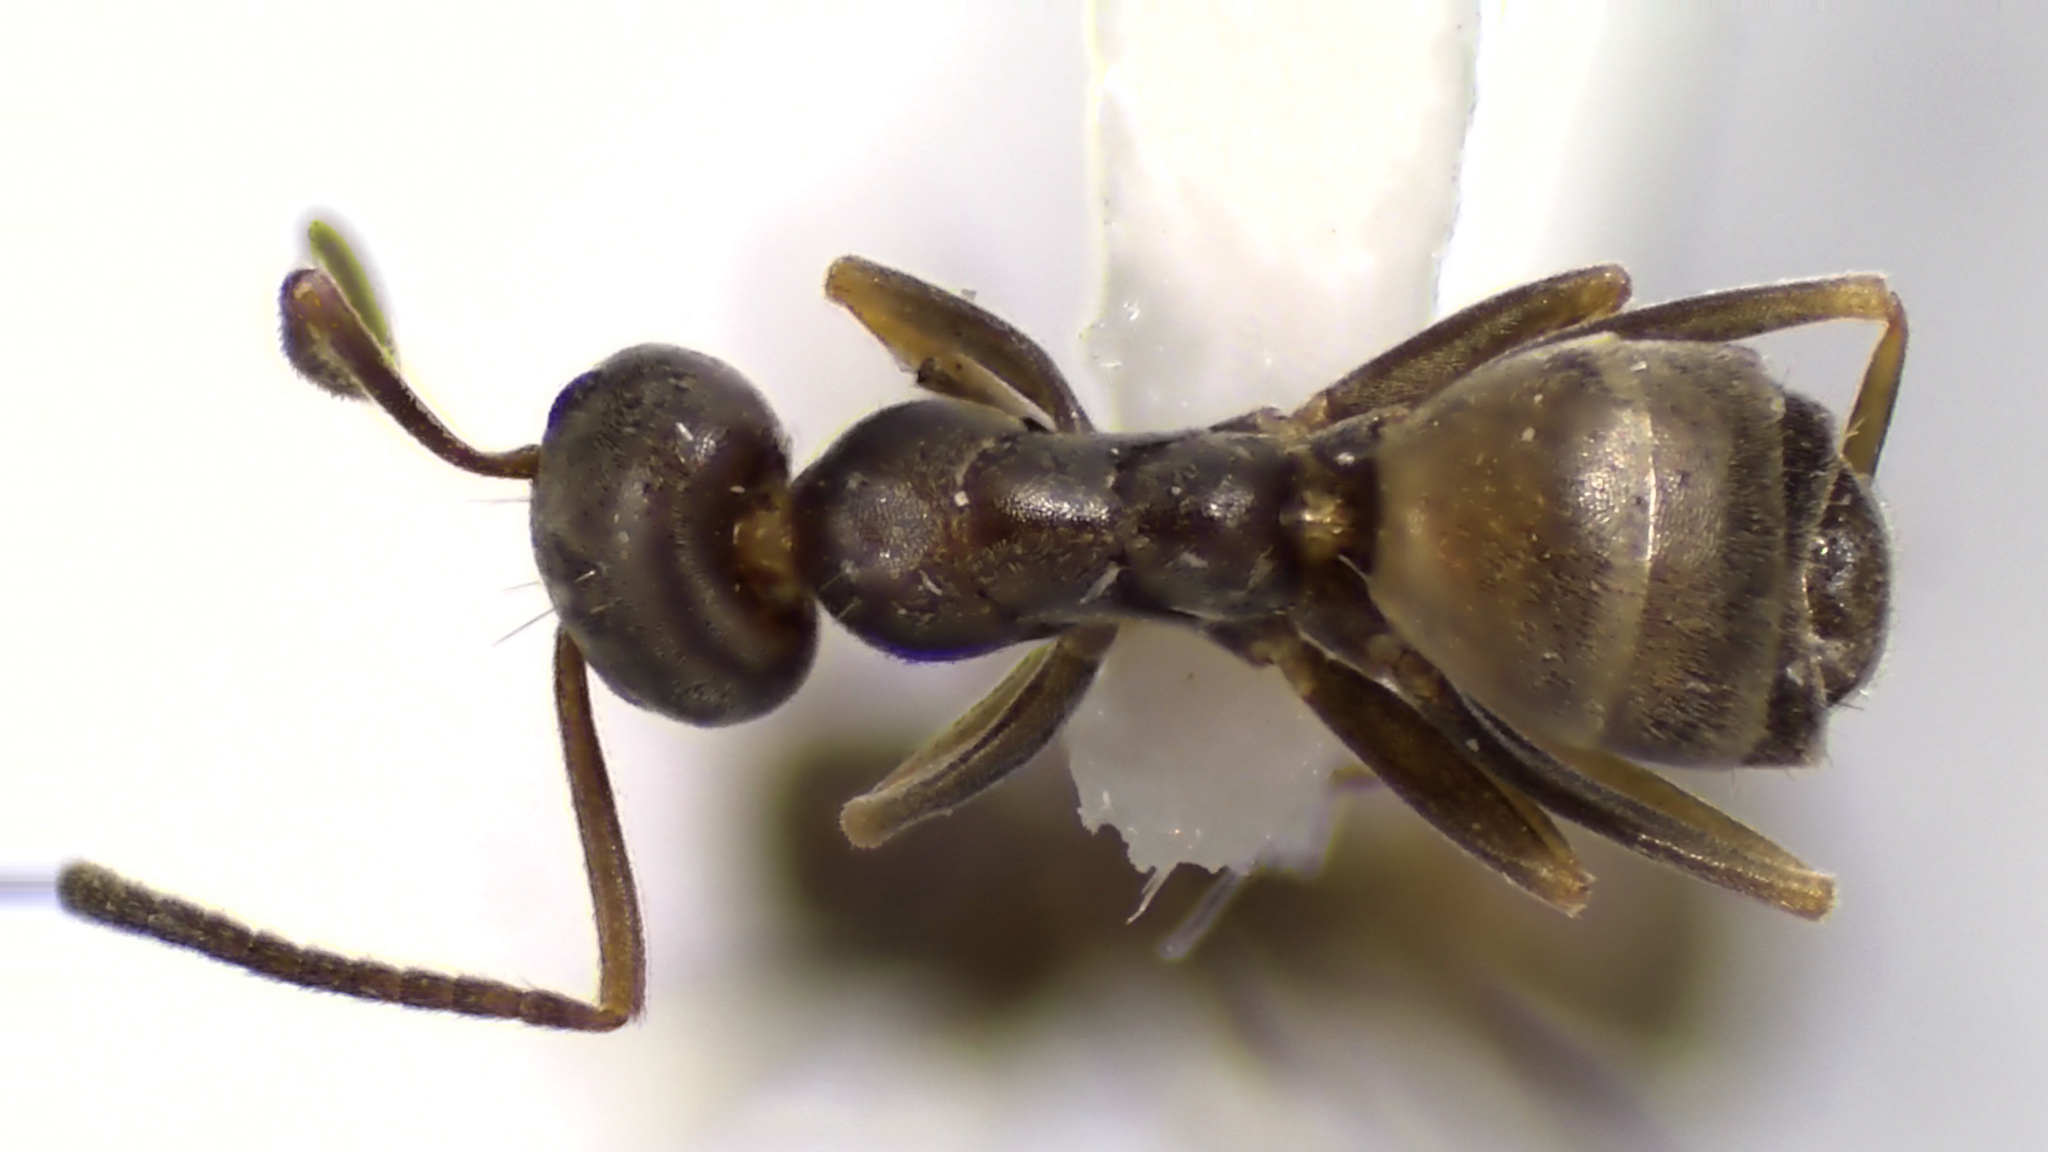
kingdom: Animalia
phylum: Arthropoda
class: Insecta
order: Hymenoptera
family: Formicidae
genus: Forelius
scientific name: Forelius pruinosus
